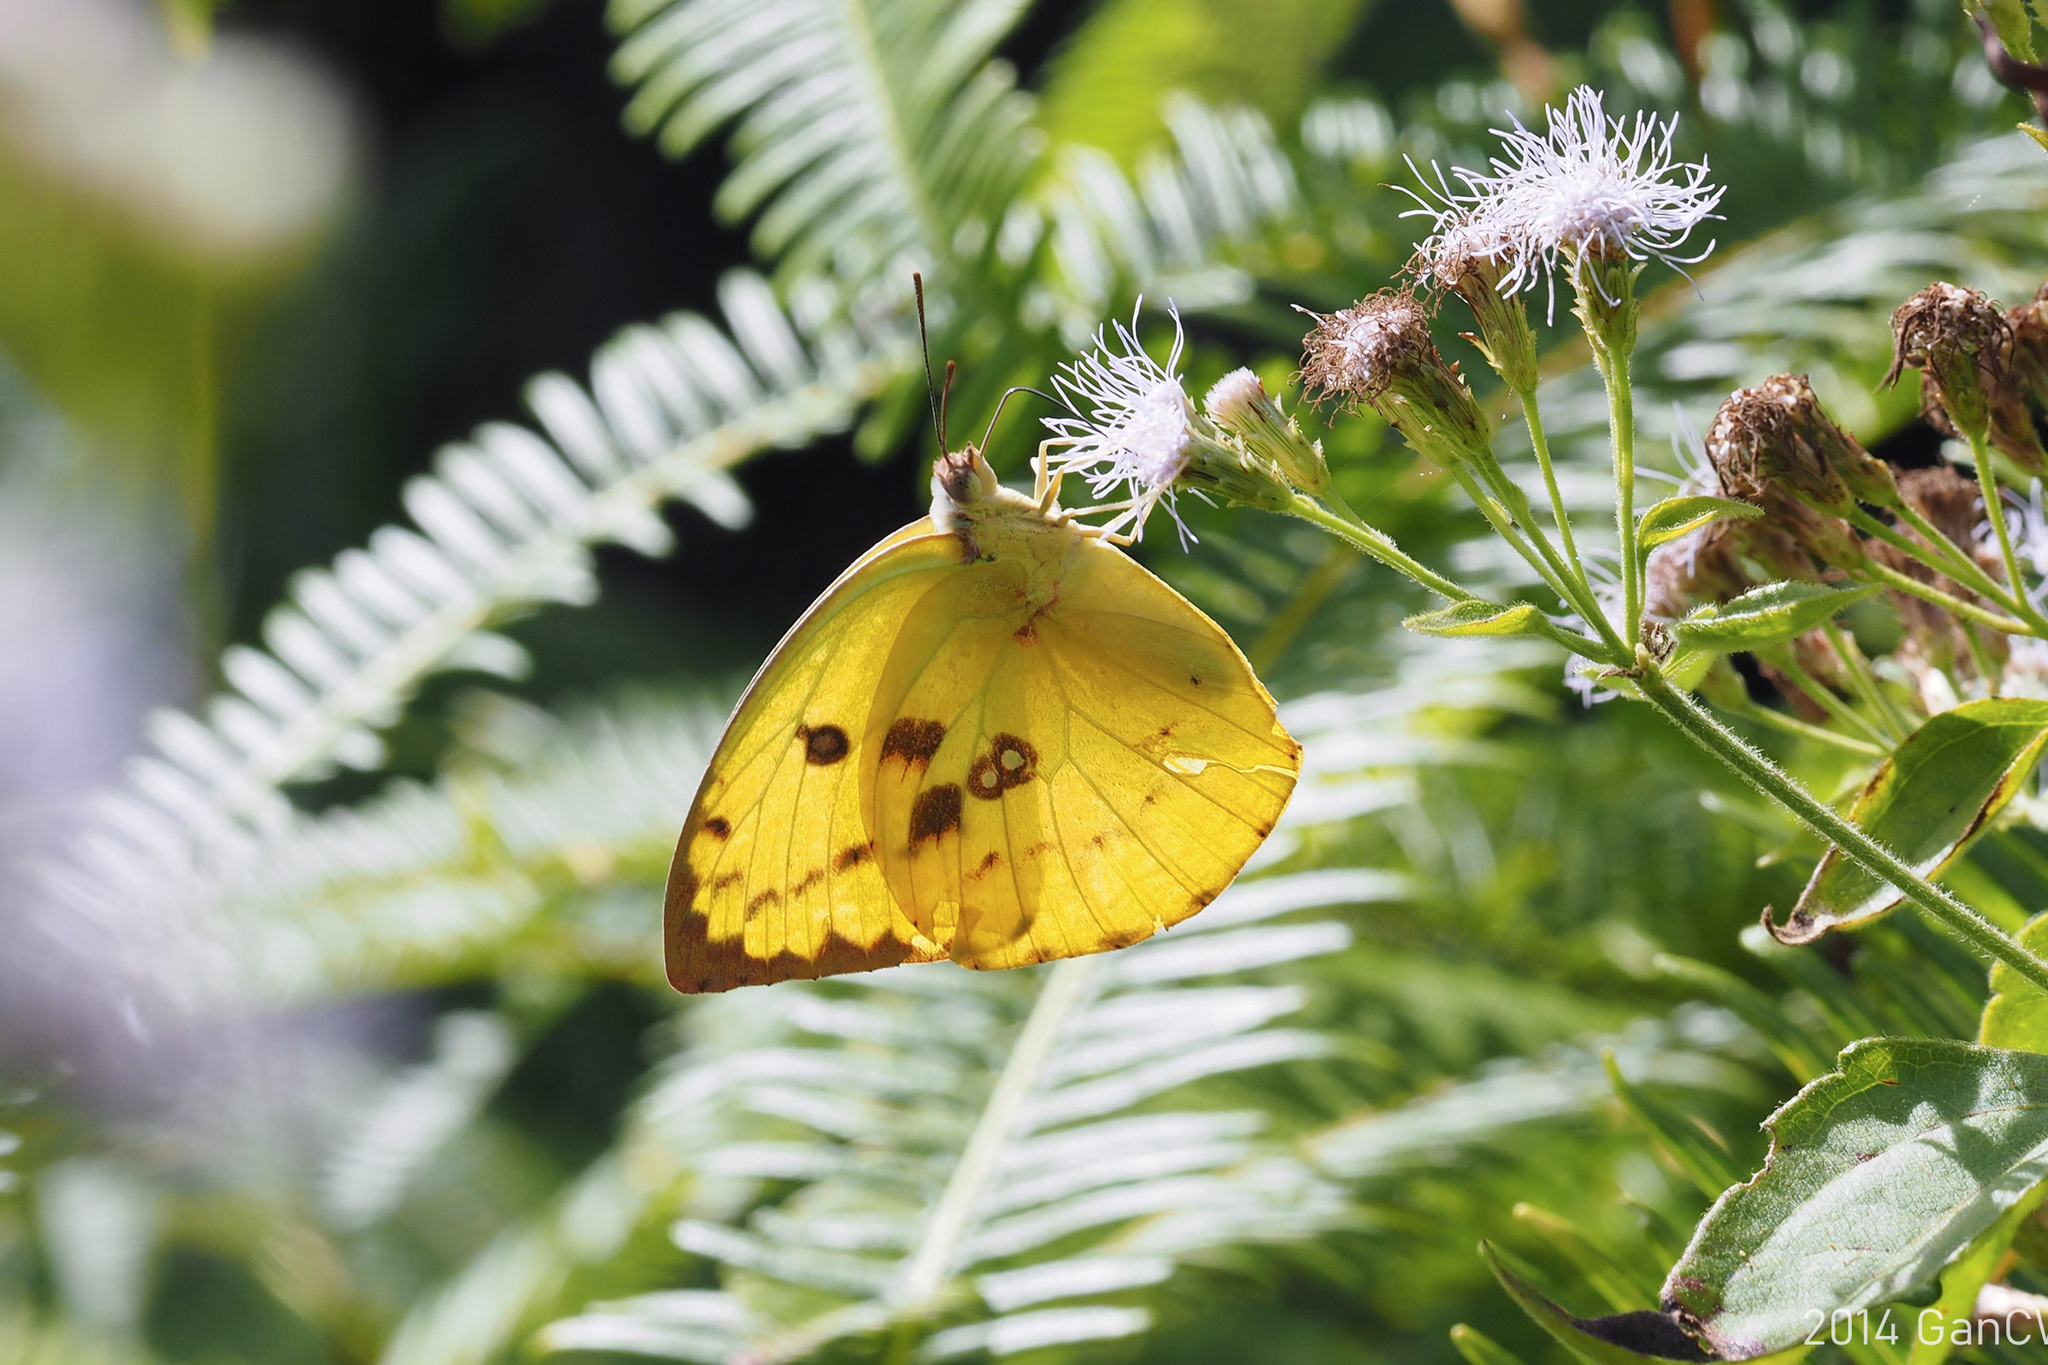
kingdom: Animalia
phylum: Arthropoda
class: Insecta
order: Lepidoptera
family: Pieridae
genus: Catopsilia
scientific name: Catopsilia pomona
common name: Common emigrant
